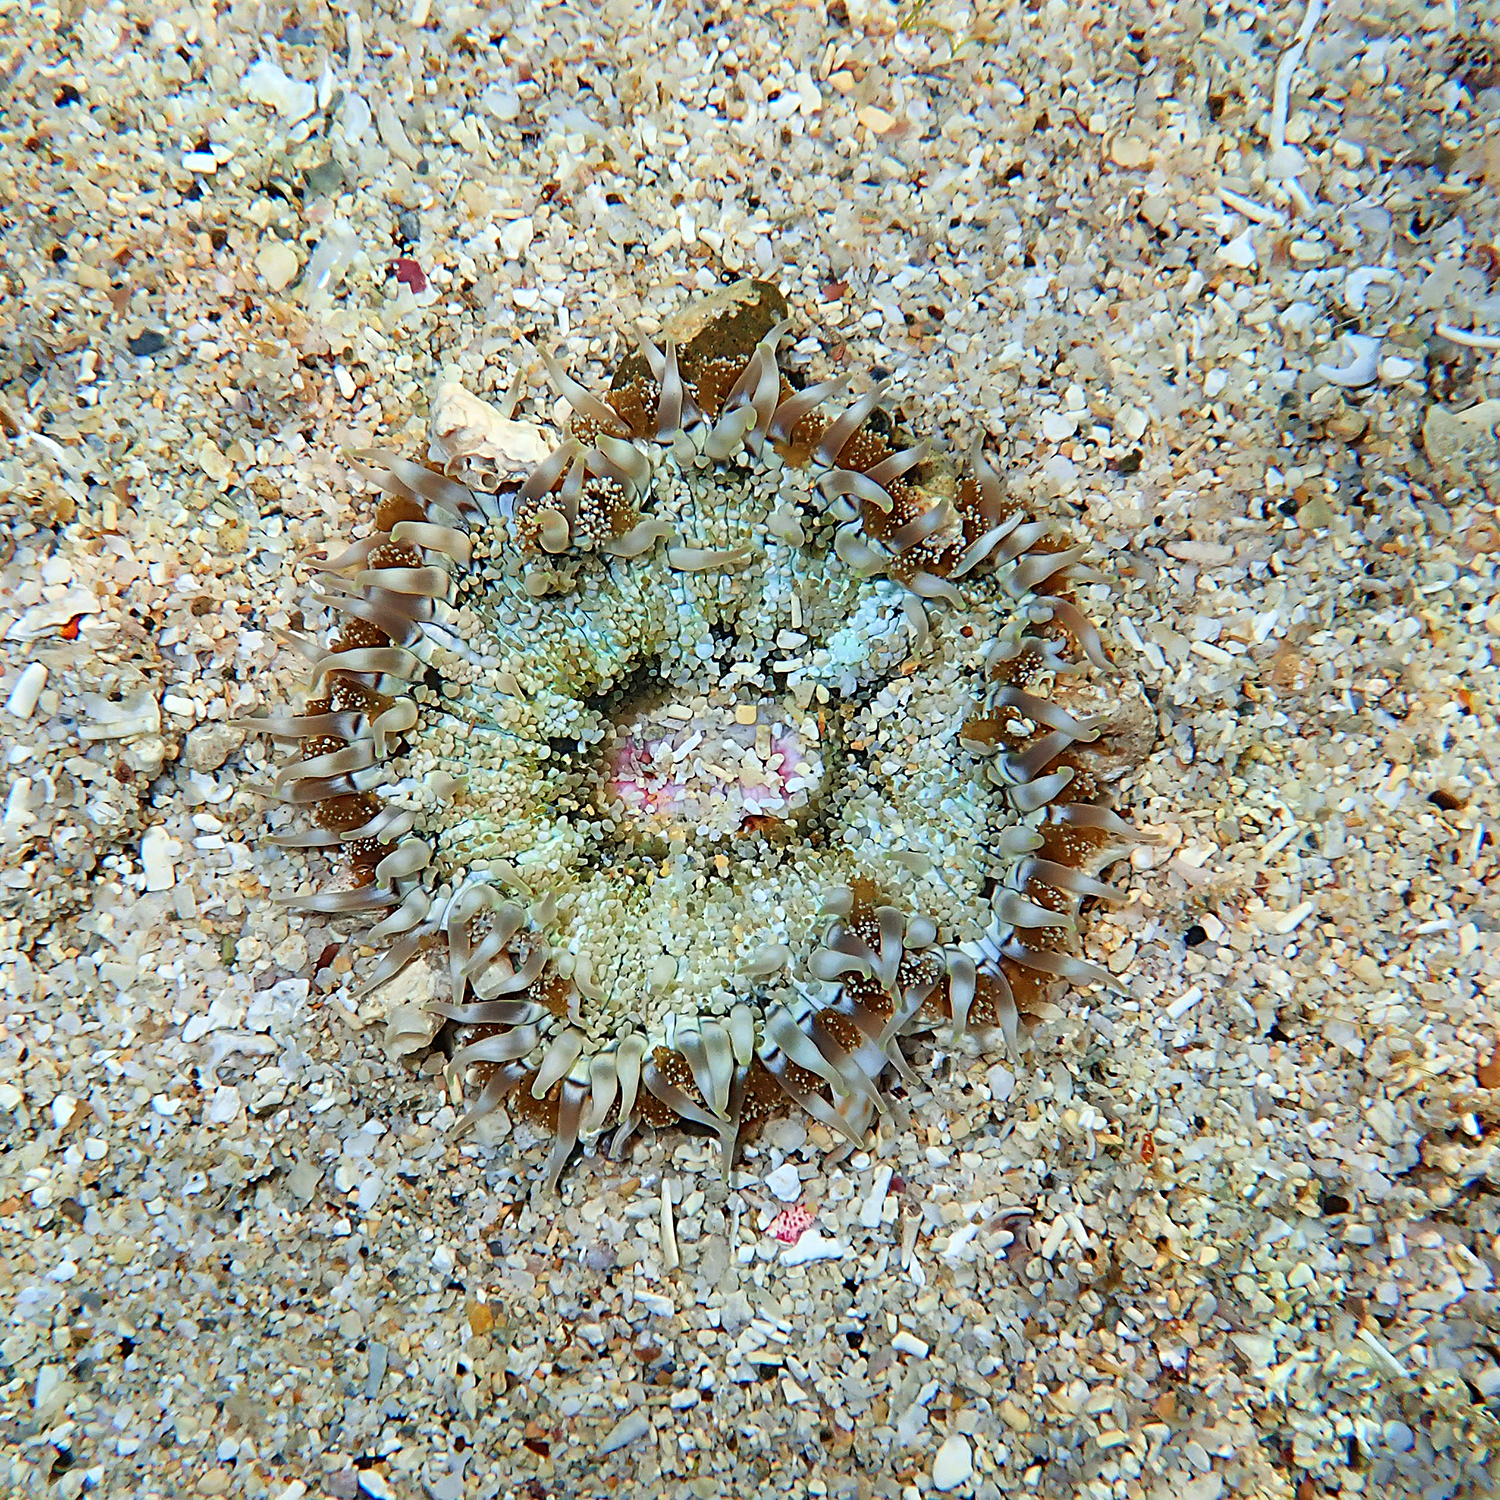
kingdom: Animalia
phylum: Cnidaria
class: Anthozoa
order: Actiniaria
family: Heteranthidae
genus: Heteranthus
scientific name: Heteranthus verruculatus
